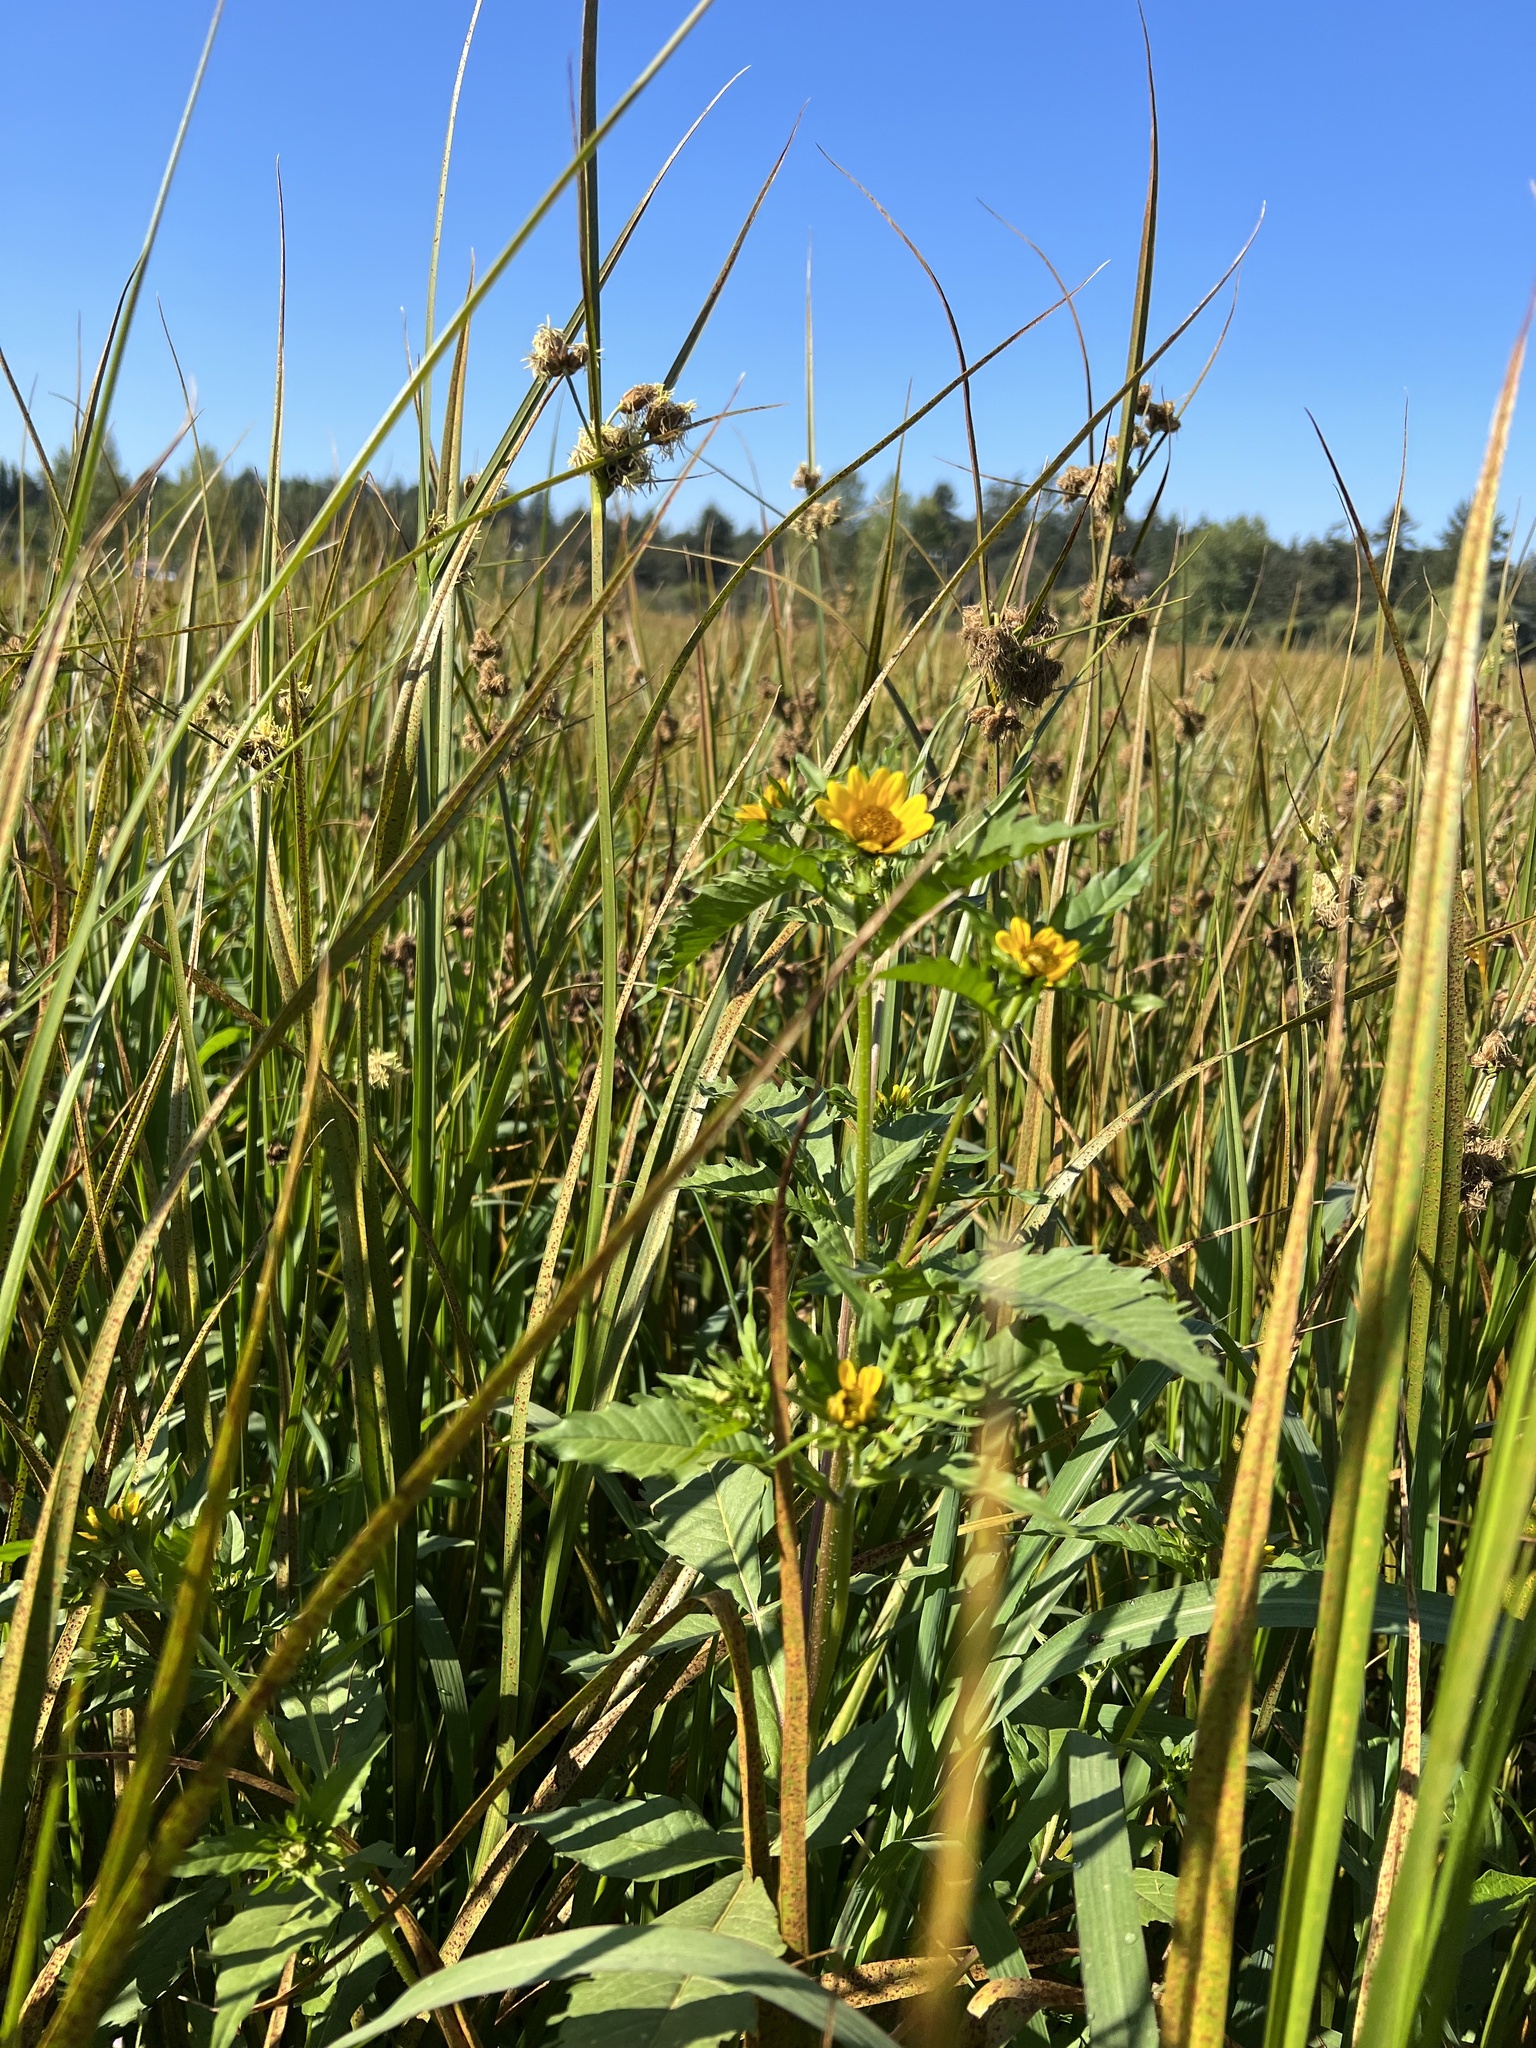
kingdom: Plantae
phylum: Tracheophyta
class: Magnoliopsida
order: Asterales
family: Asteraceae
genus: Bidens
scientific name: Bidens amplissima
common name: Vancouver island beggarticks
